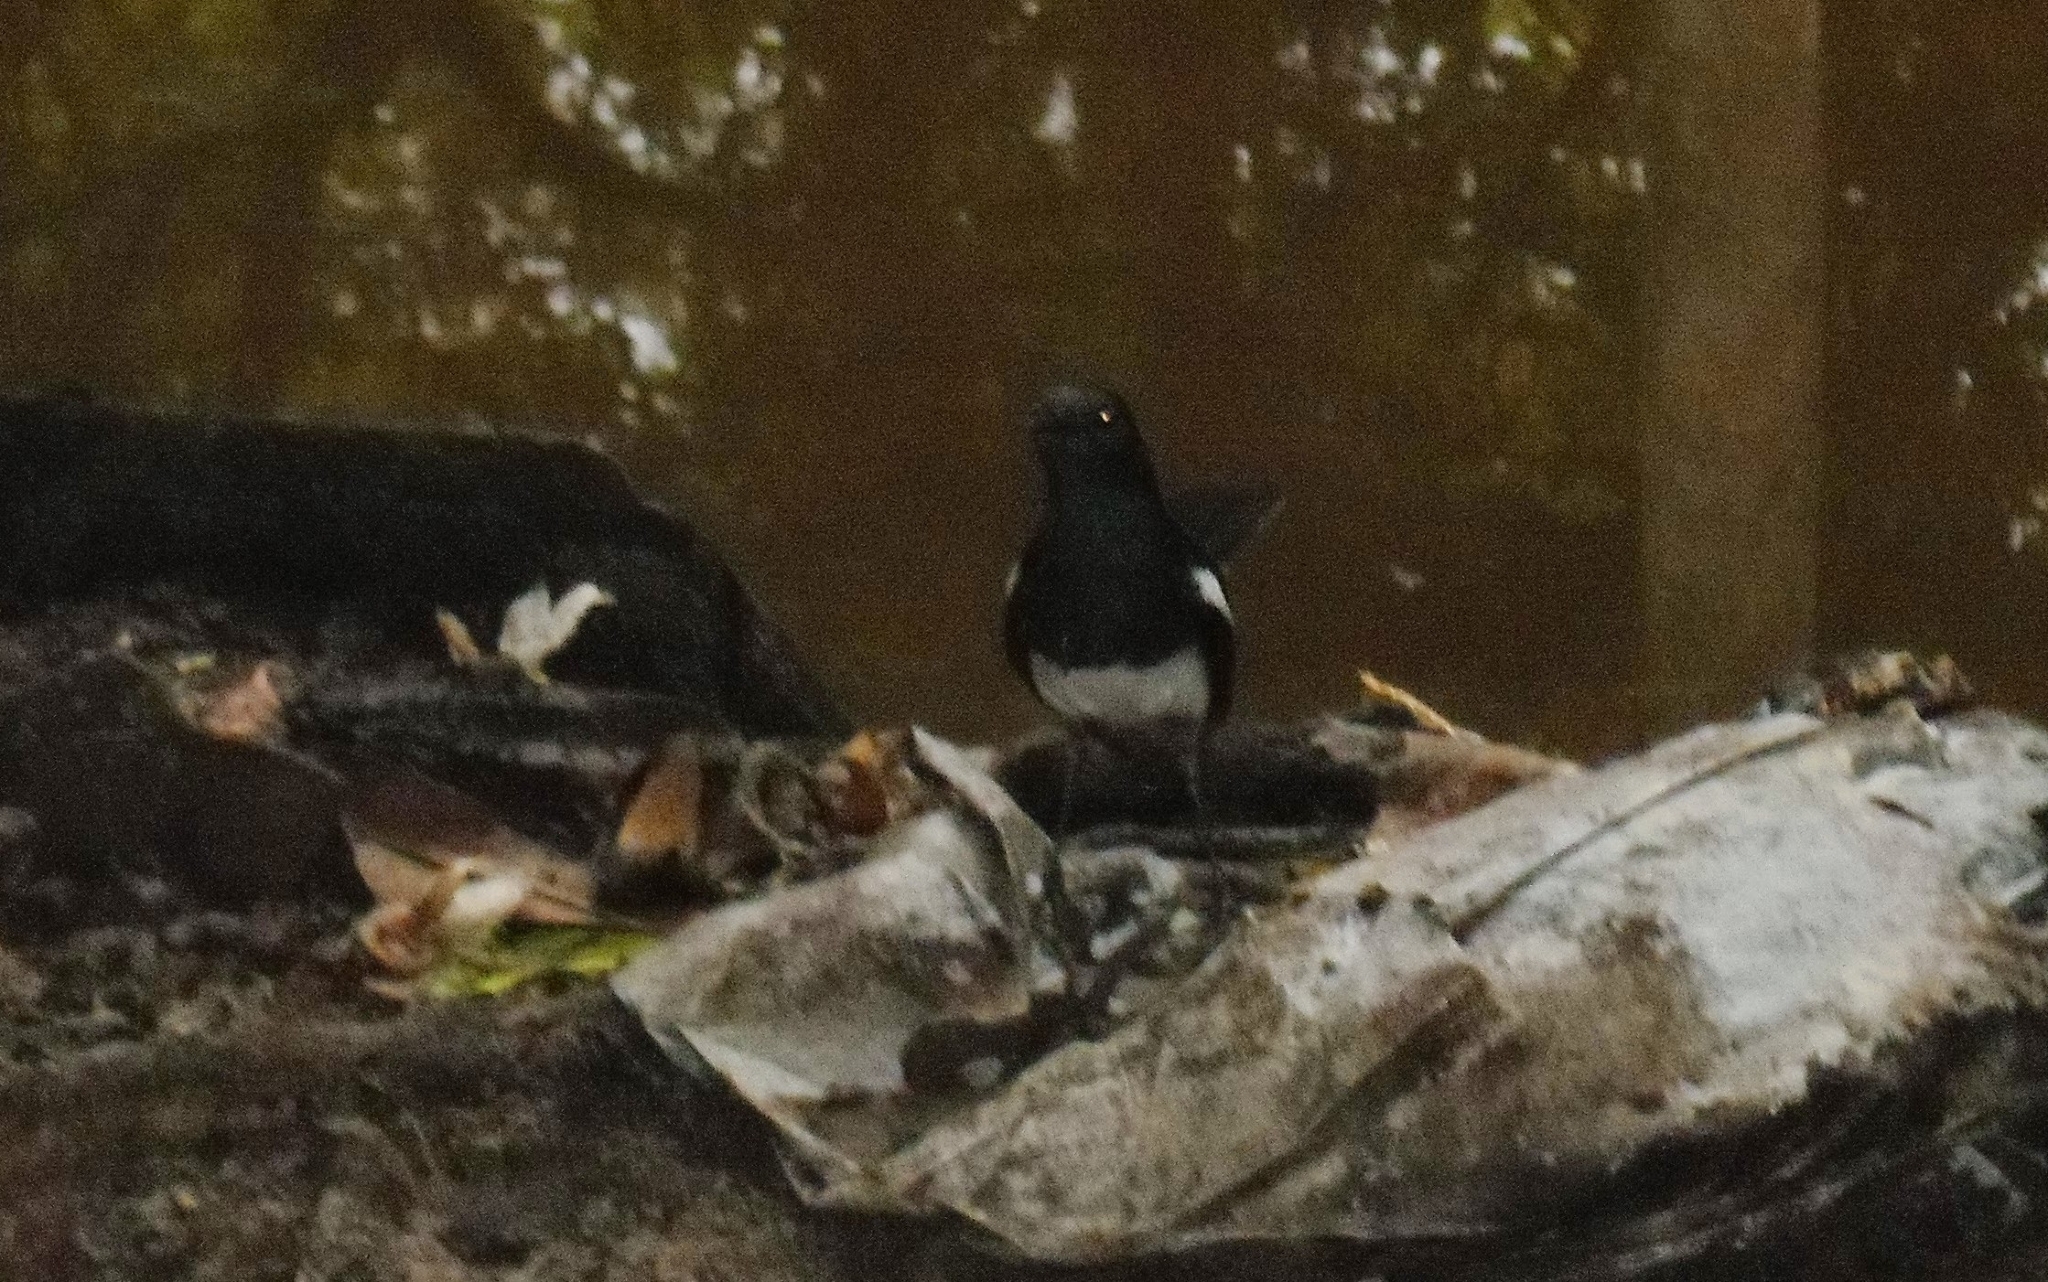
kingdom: Animalia
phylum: Chordata
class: Aves
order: Passeriformes
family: Muscicapidae
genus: Copsychus
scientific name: Copsychus saularis
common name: Oriental magpie-robin
